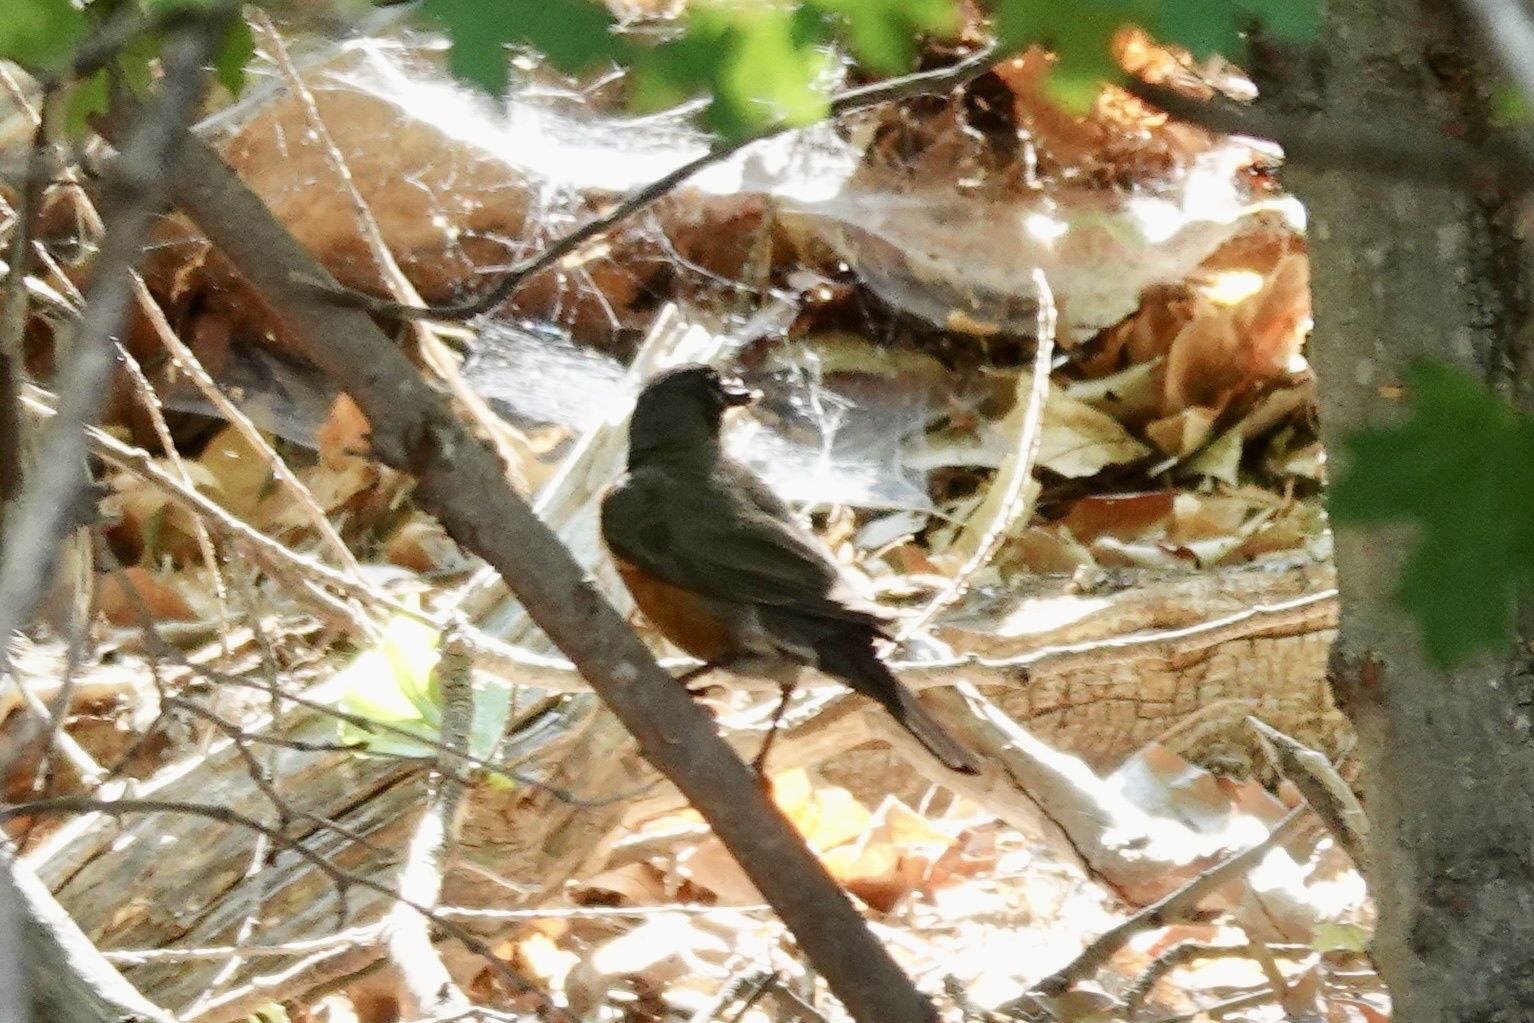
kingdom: Animalia
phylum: Chordata
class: Aves
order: Passeriformes
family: Turdidae
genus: Turdus
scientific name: Turdus migratorius
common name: American robin
